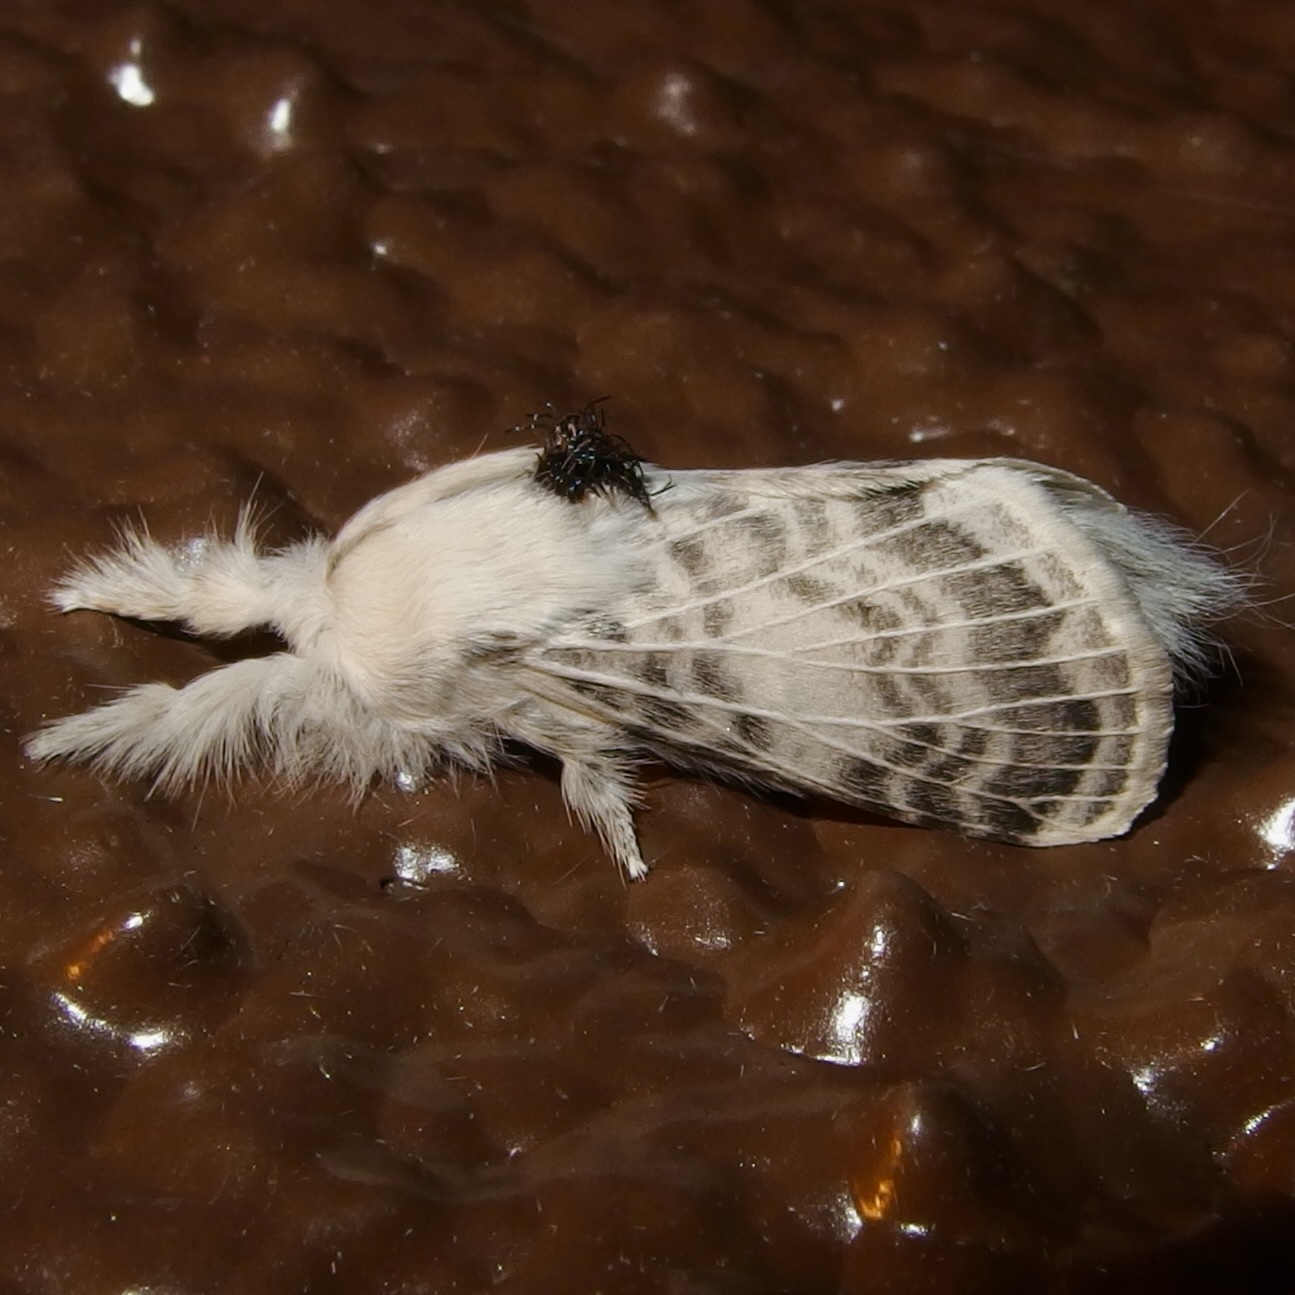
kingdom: Animalia
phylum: Arthropoda
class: Insecta
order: Lepidoptera
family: Lasiocampidae
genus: Apotolype
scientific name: Apotolype brevicrista
